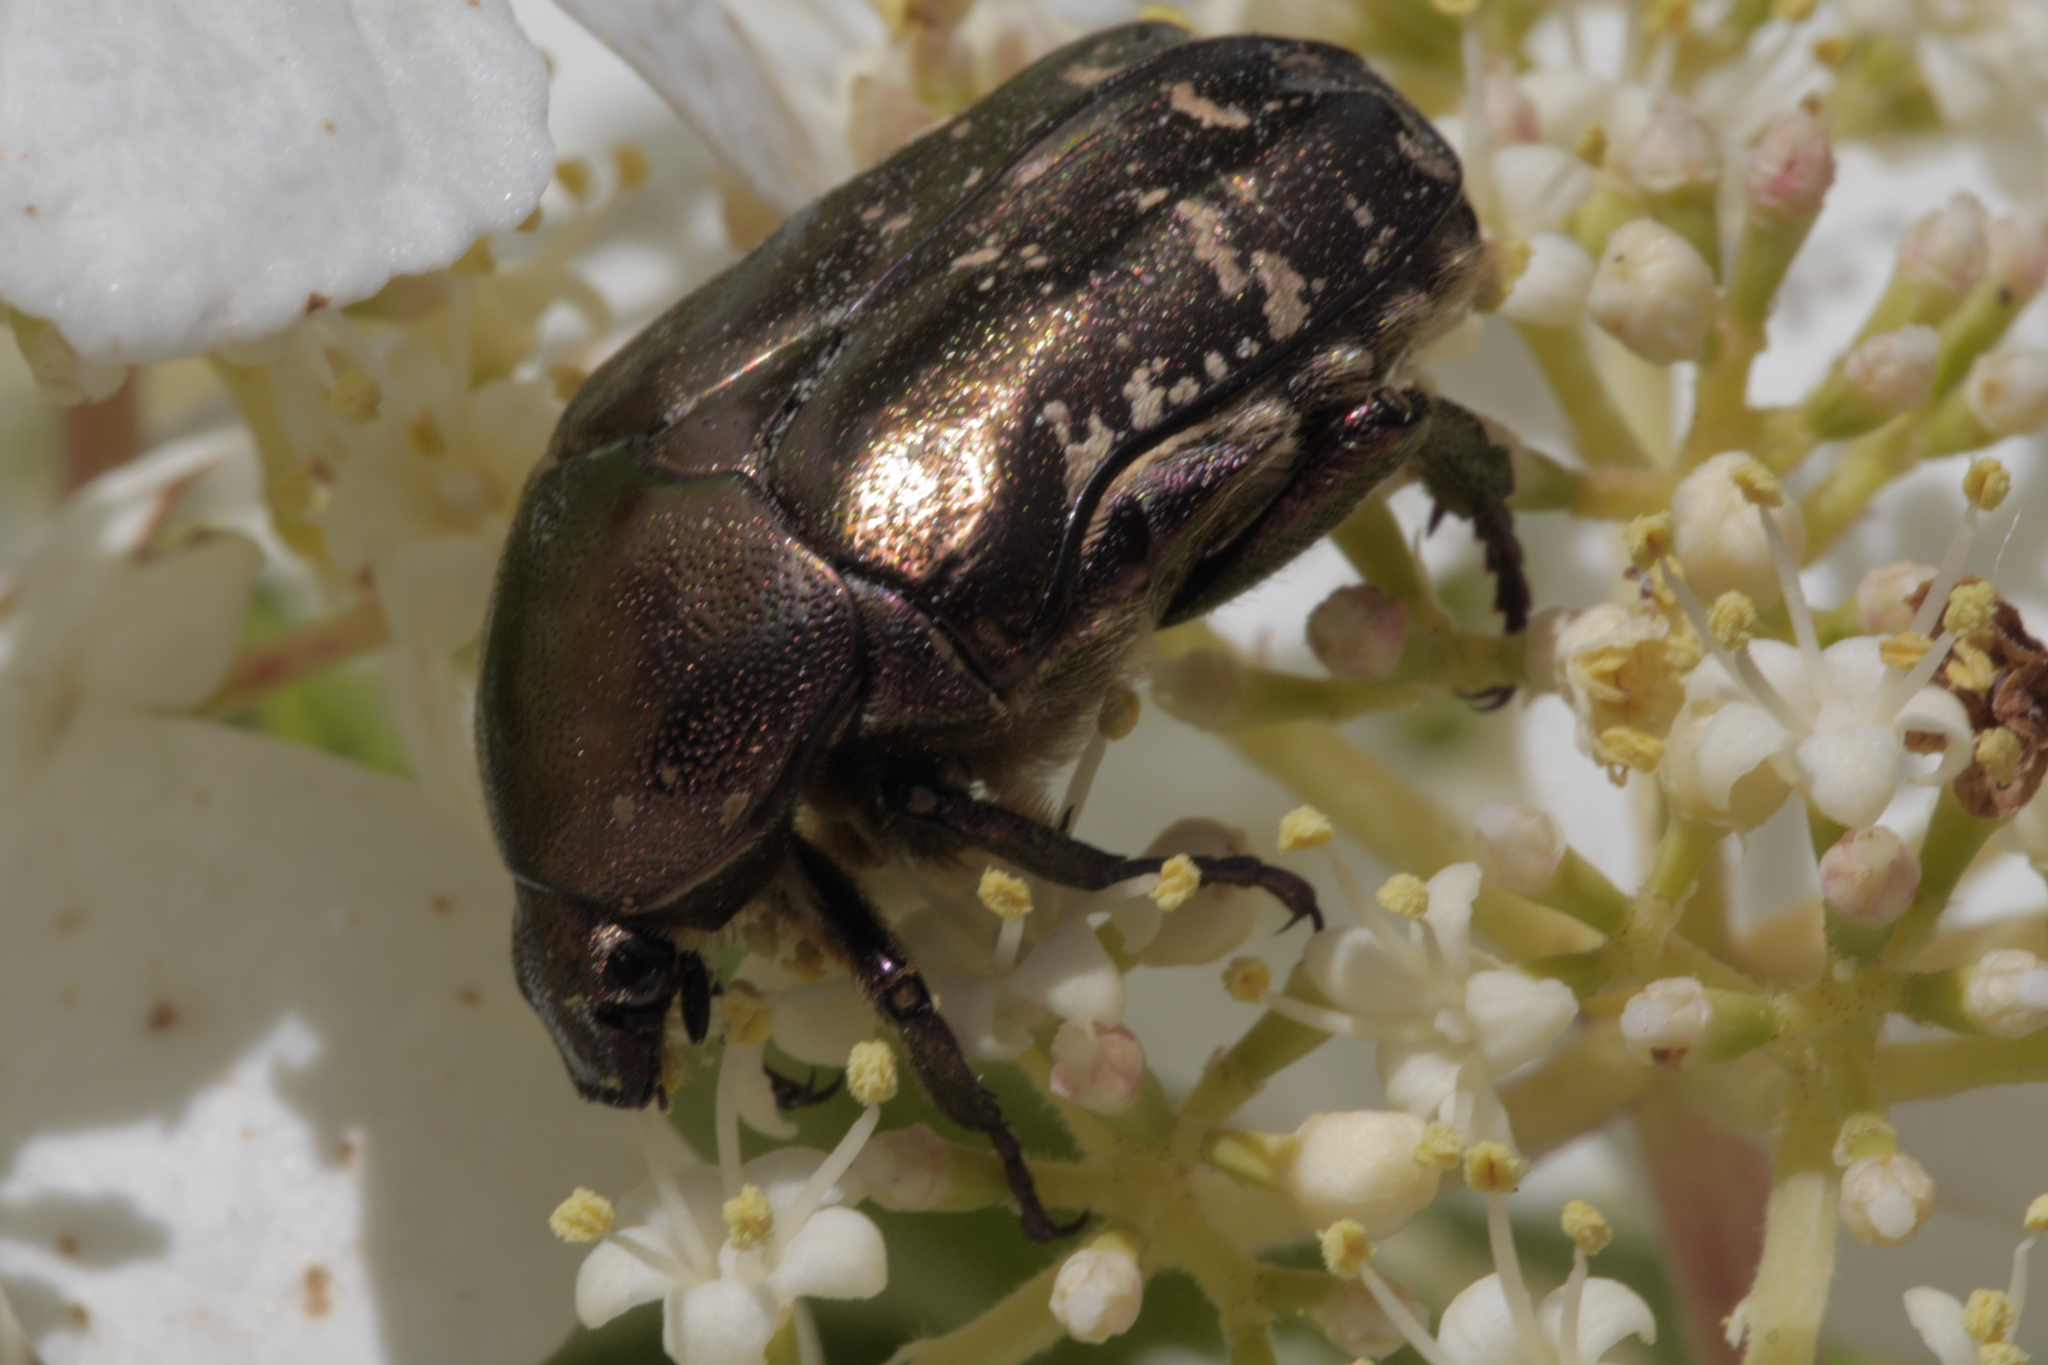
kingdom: Animalia
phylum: Arthropoda
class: Insecta
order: Coleoptera
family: Scarabaeidae
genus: Protaetia
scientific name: Protaetia cuprea
